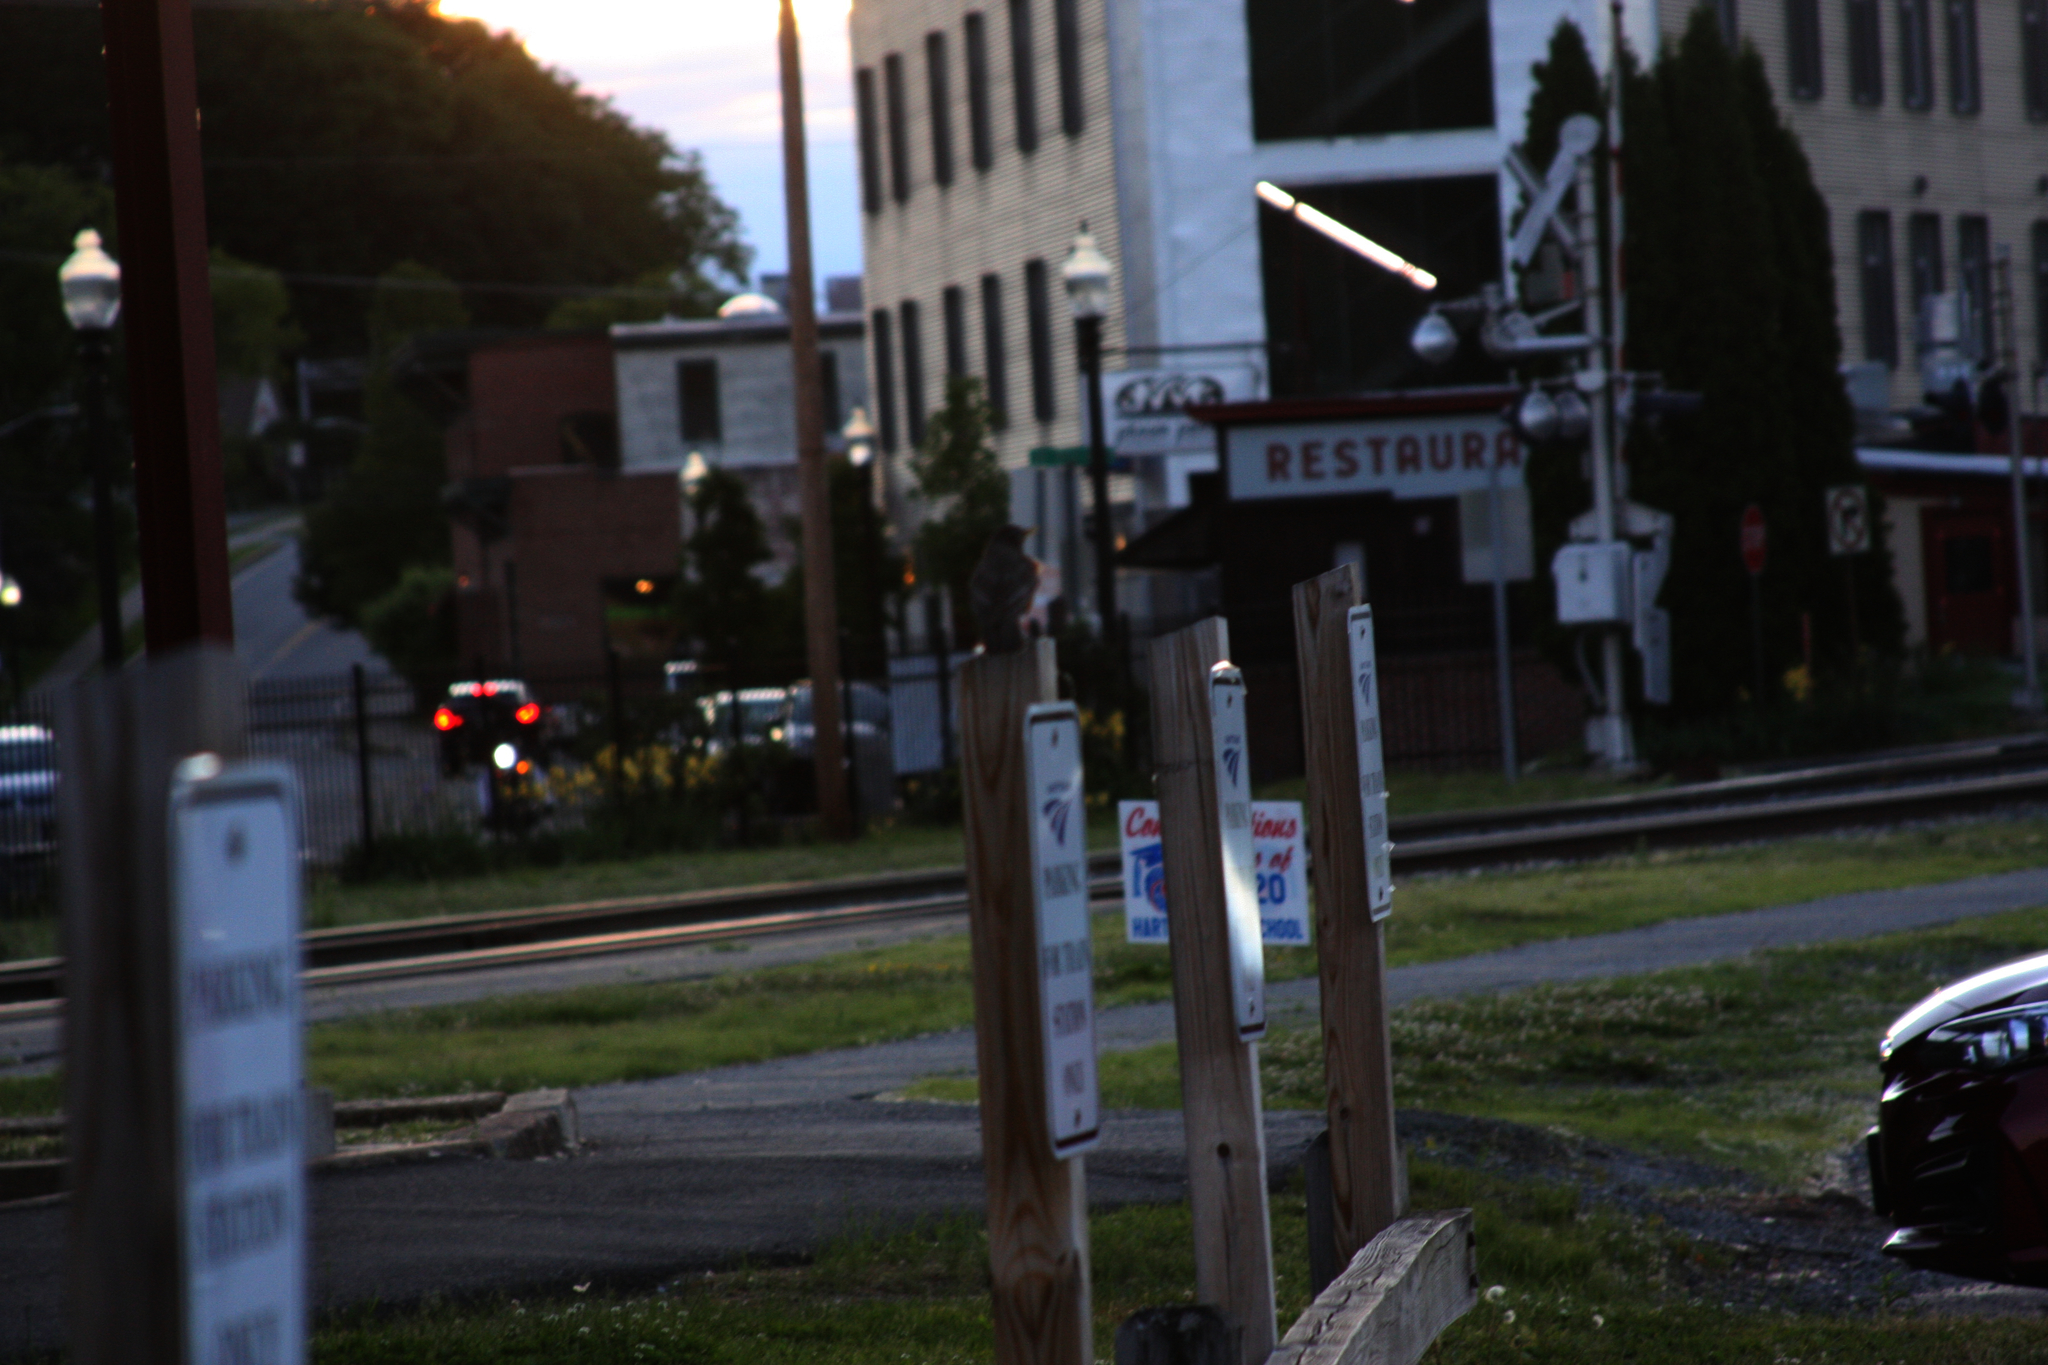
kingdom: Animalia
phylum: Chordata
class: Aves
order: Passeriformes
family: Turdidae
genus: Turdus
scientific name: Turdus migratorius
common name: American robin
